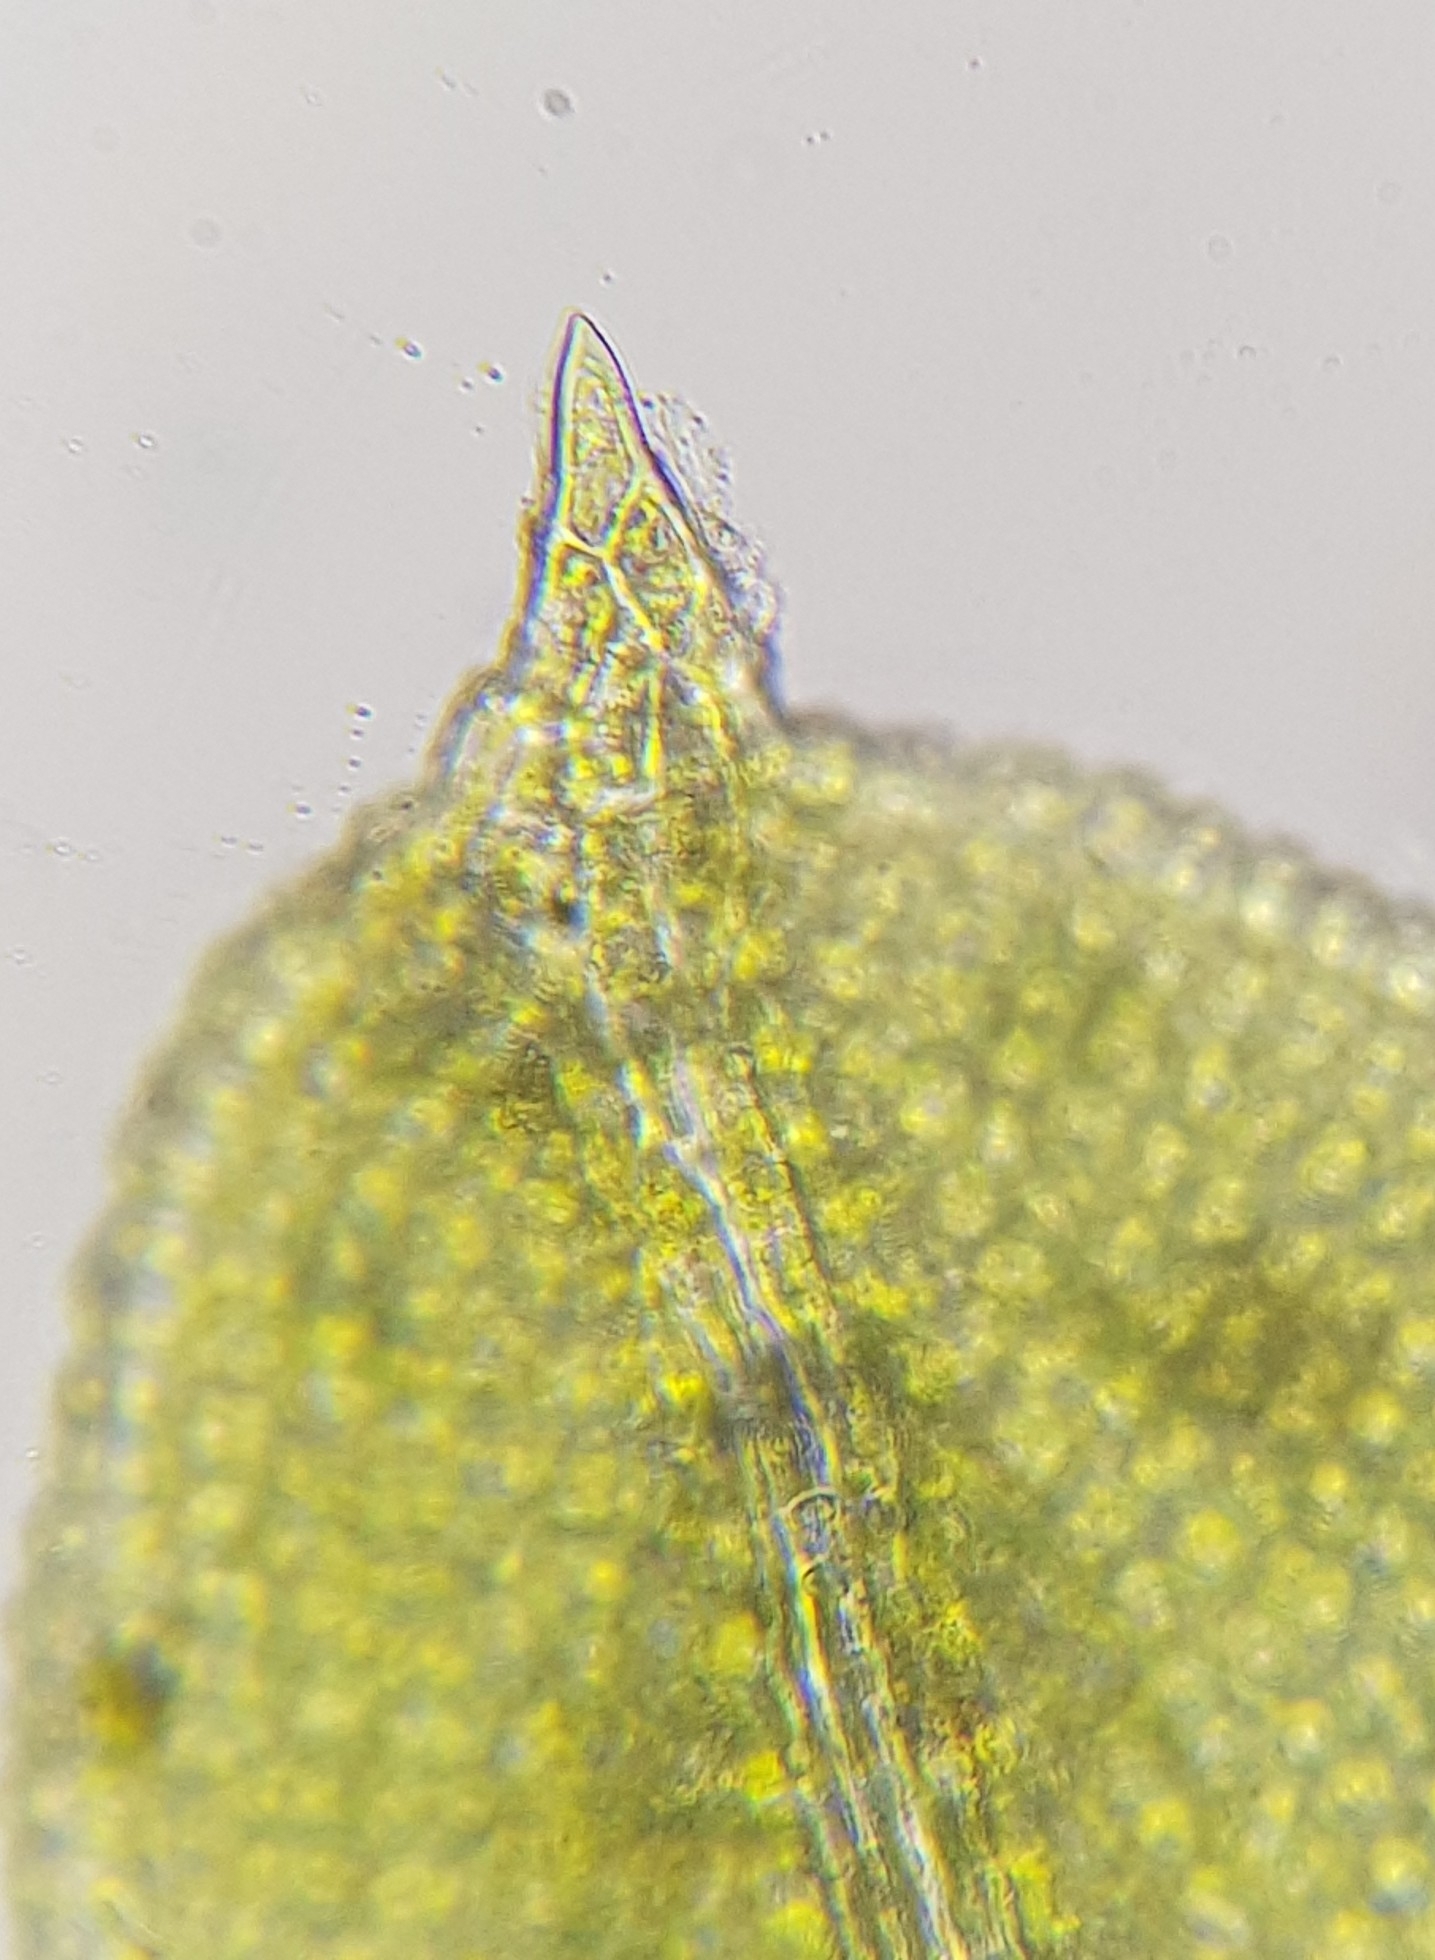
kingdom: Plantae
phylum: Bryophyta
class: Bryopsida
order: Pottiales
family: Pottiaceae
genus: Barbula
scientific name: Barbula unguiculata
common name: Prickly beard moss
